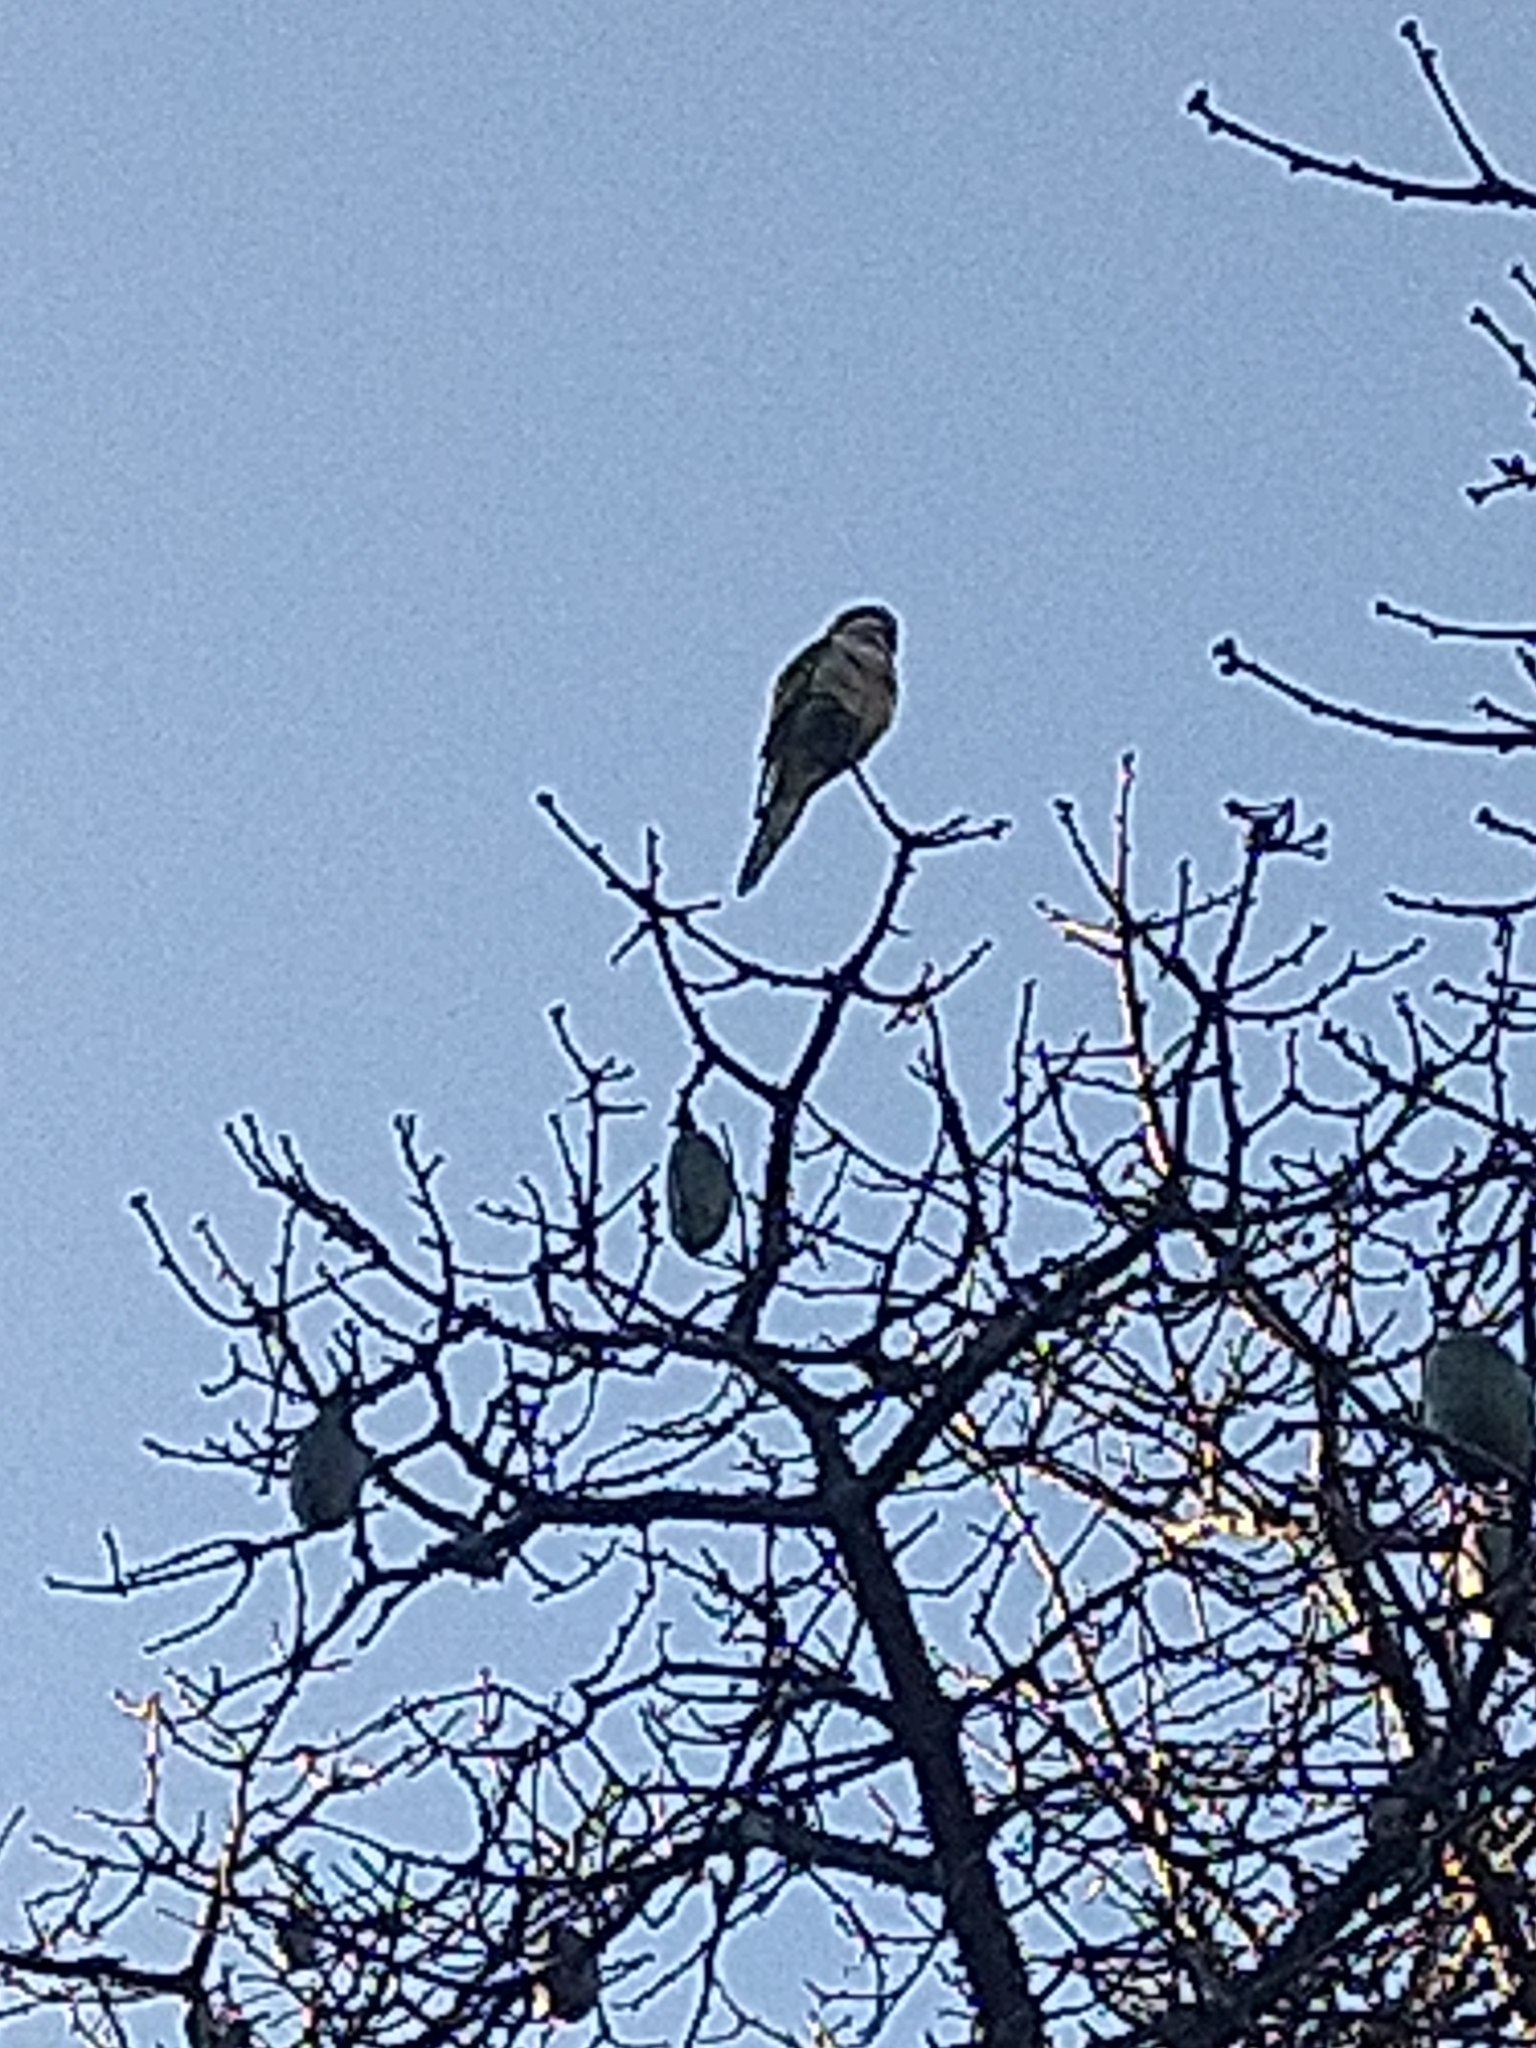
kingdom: Animalia
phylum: Chordata
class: Aves
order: Psittaciformes
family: Psittacidae
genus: Myiopsitta
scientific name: Myiopsitta monachus
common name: Monk parakeet
